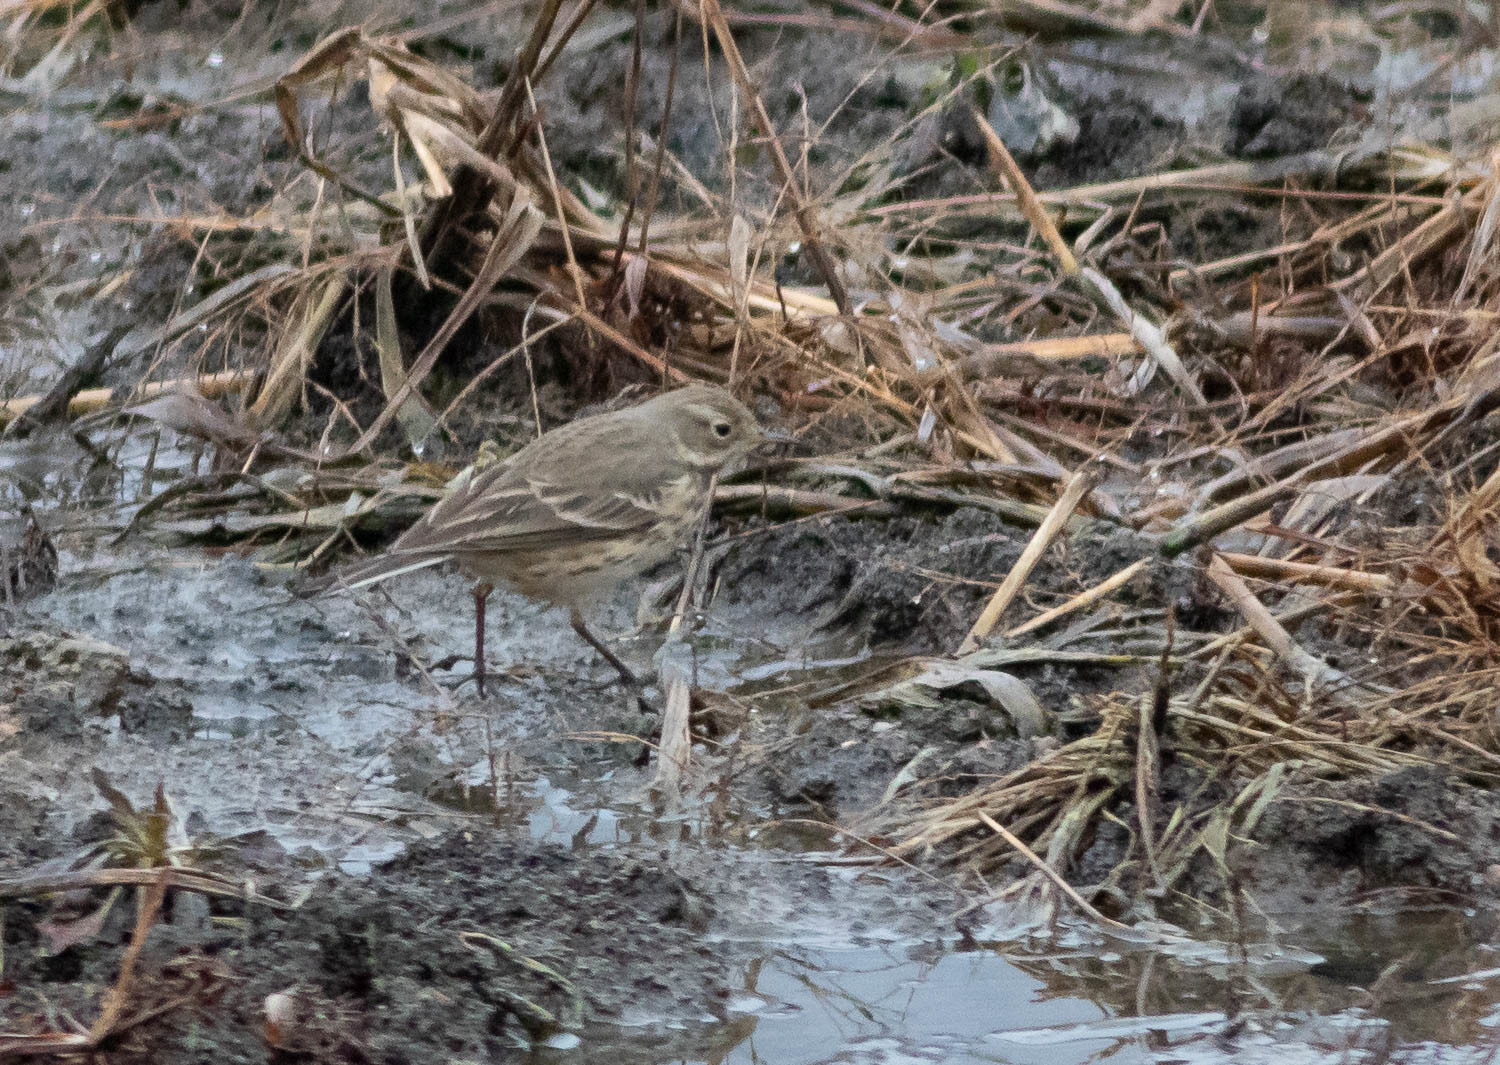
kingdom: Animalia
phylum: Chordata
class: Aves
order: Passeriformes
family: Motacillidae
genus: Anthus
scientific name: Anthus rubescens
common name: Buff-bellied pipit
